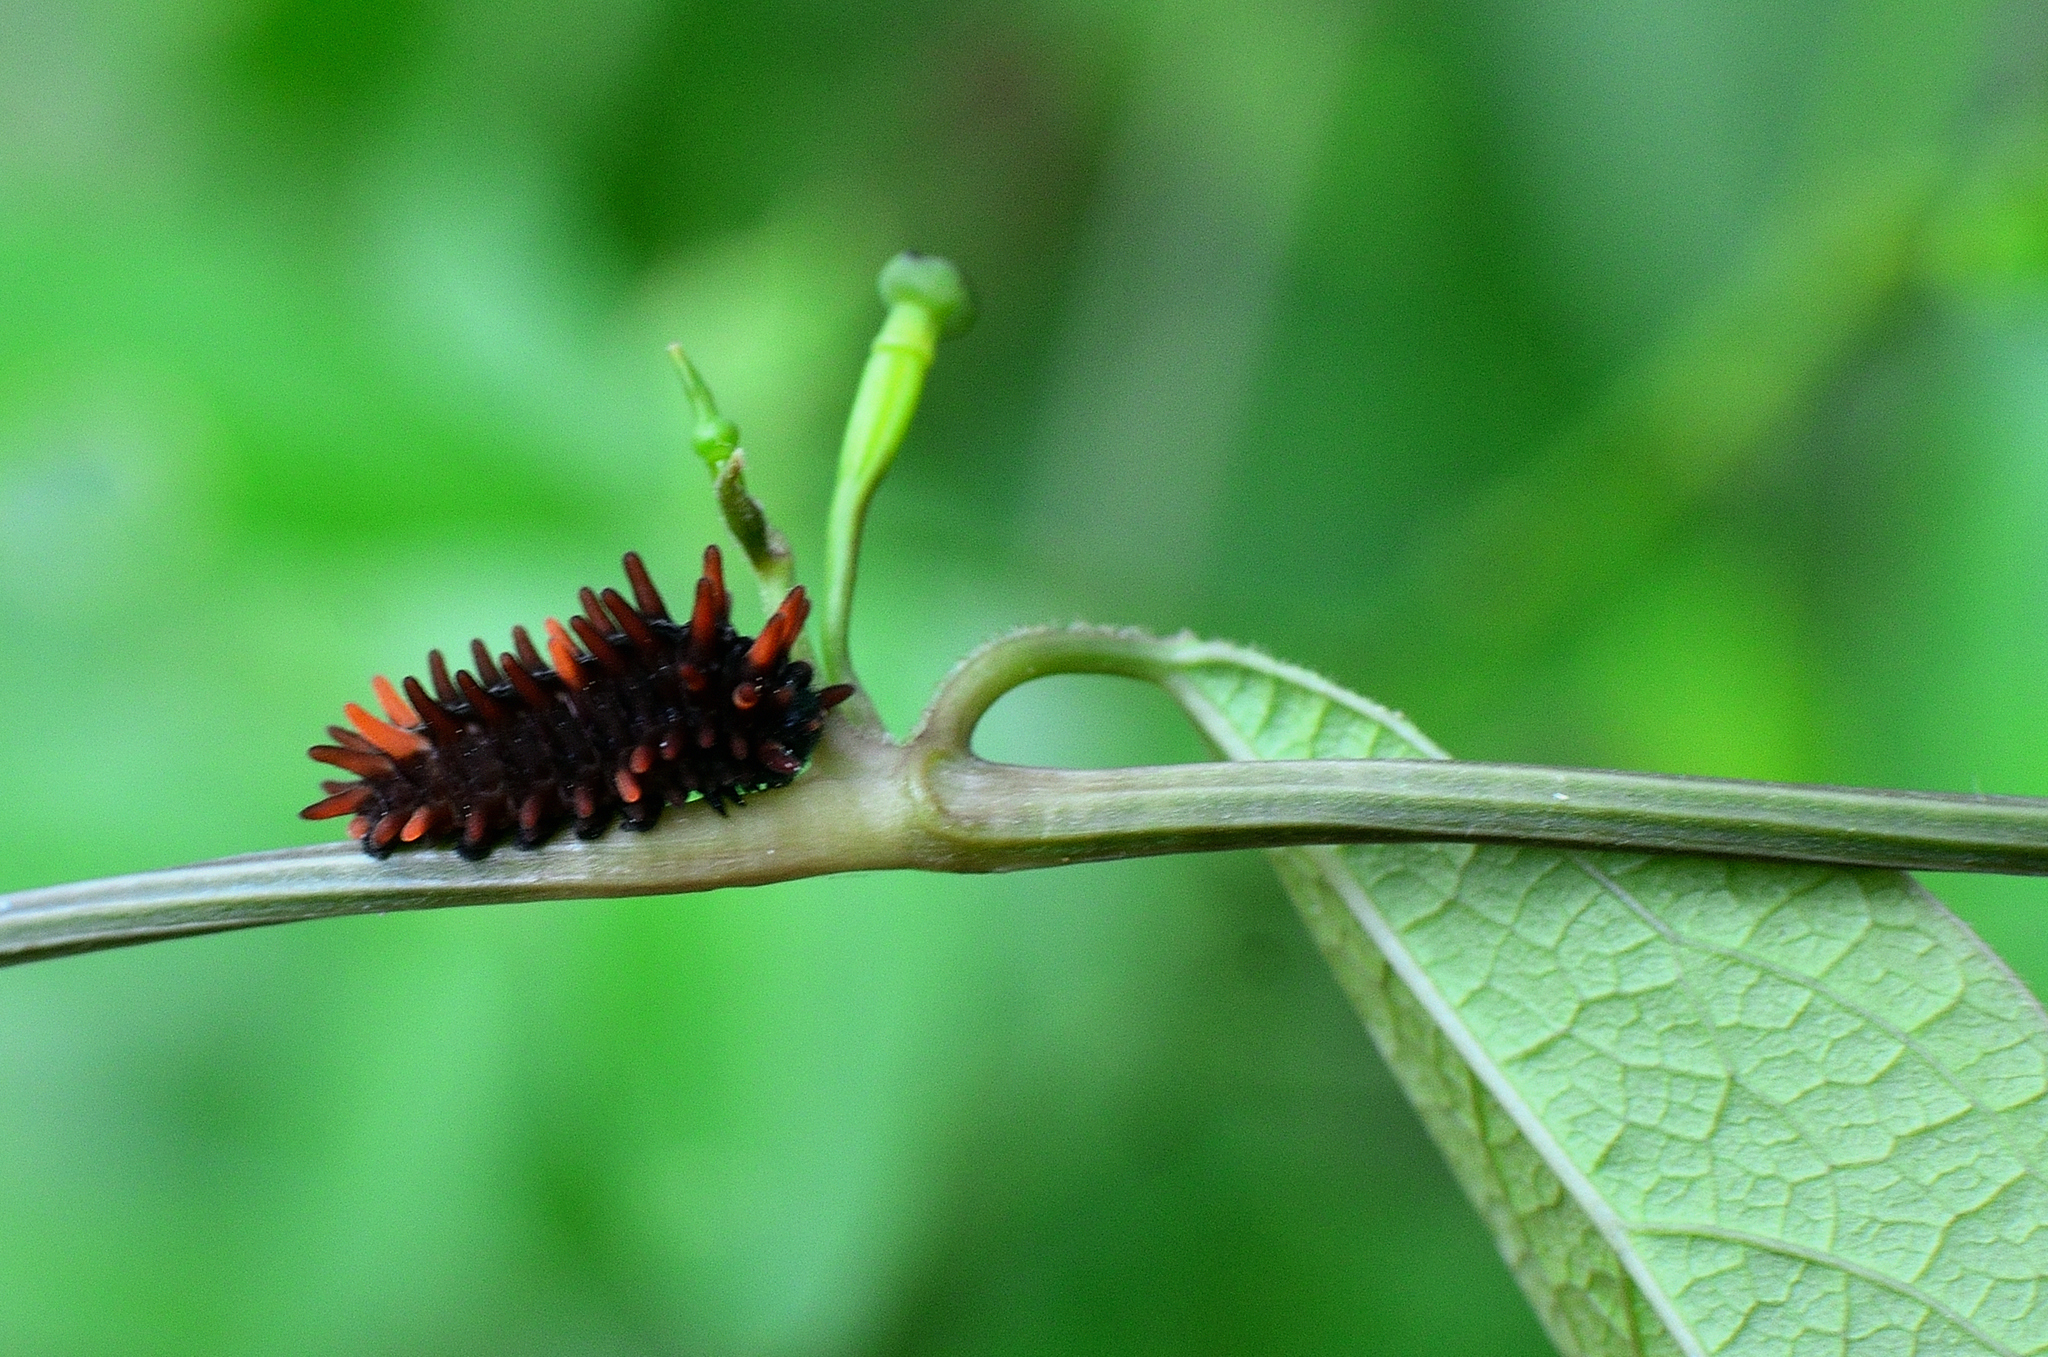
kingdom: Animalia
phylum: Arthropoda
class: Insecta
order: Lepidoptera
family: Papilionidae
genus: Pachliopta
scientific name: Pachliopta hector
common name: Crimson rose
